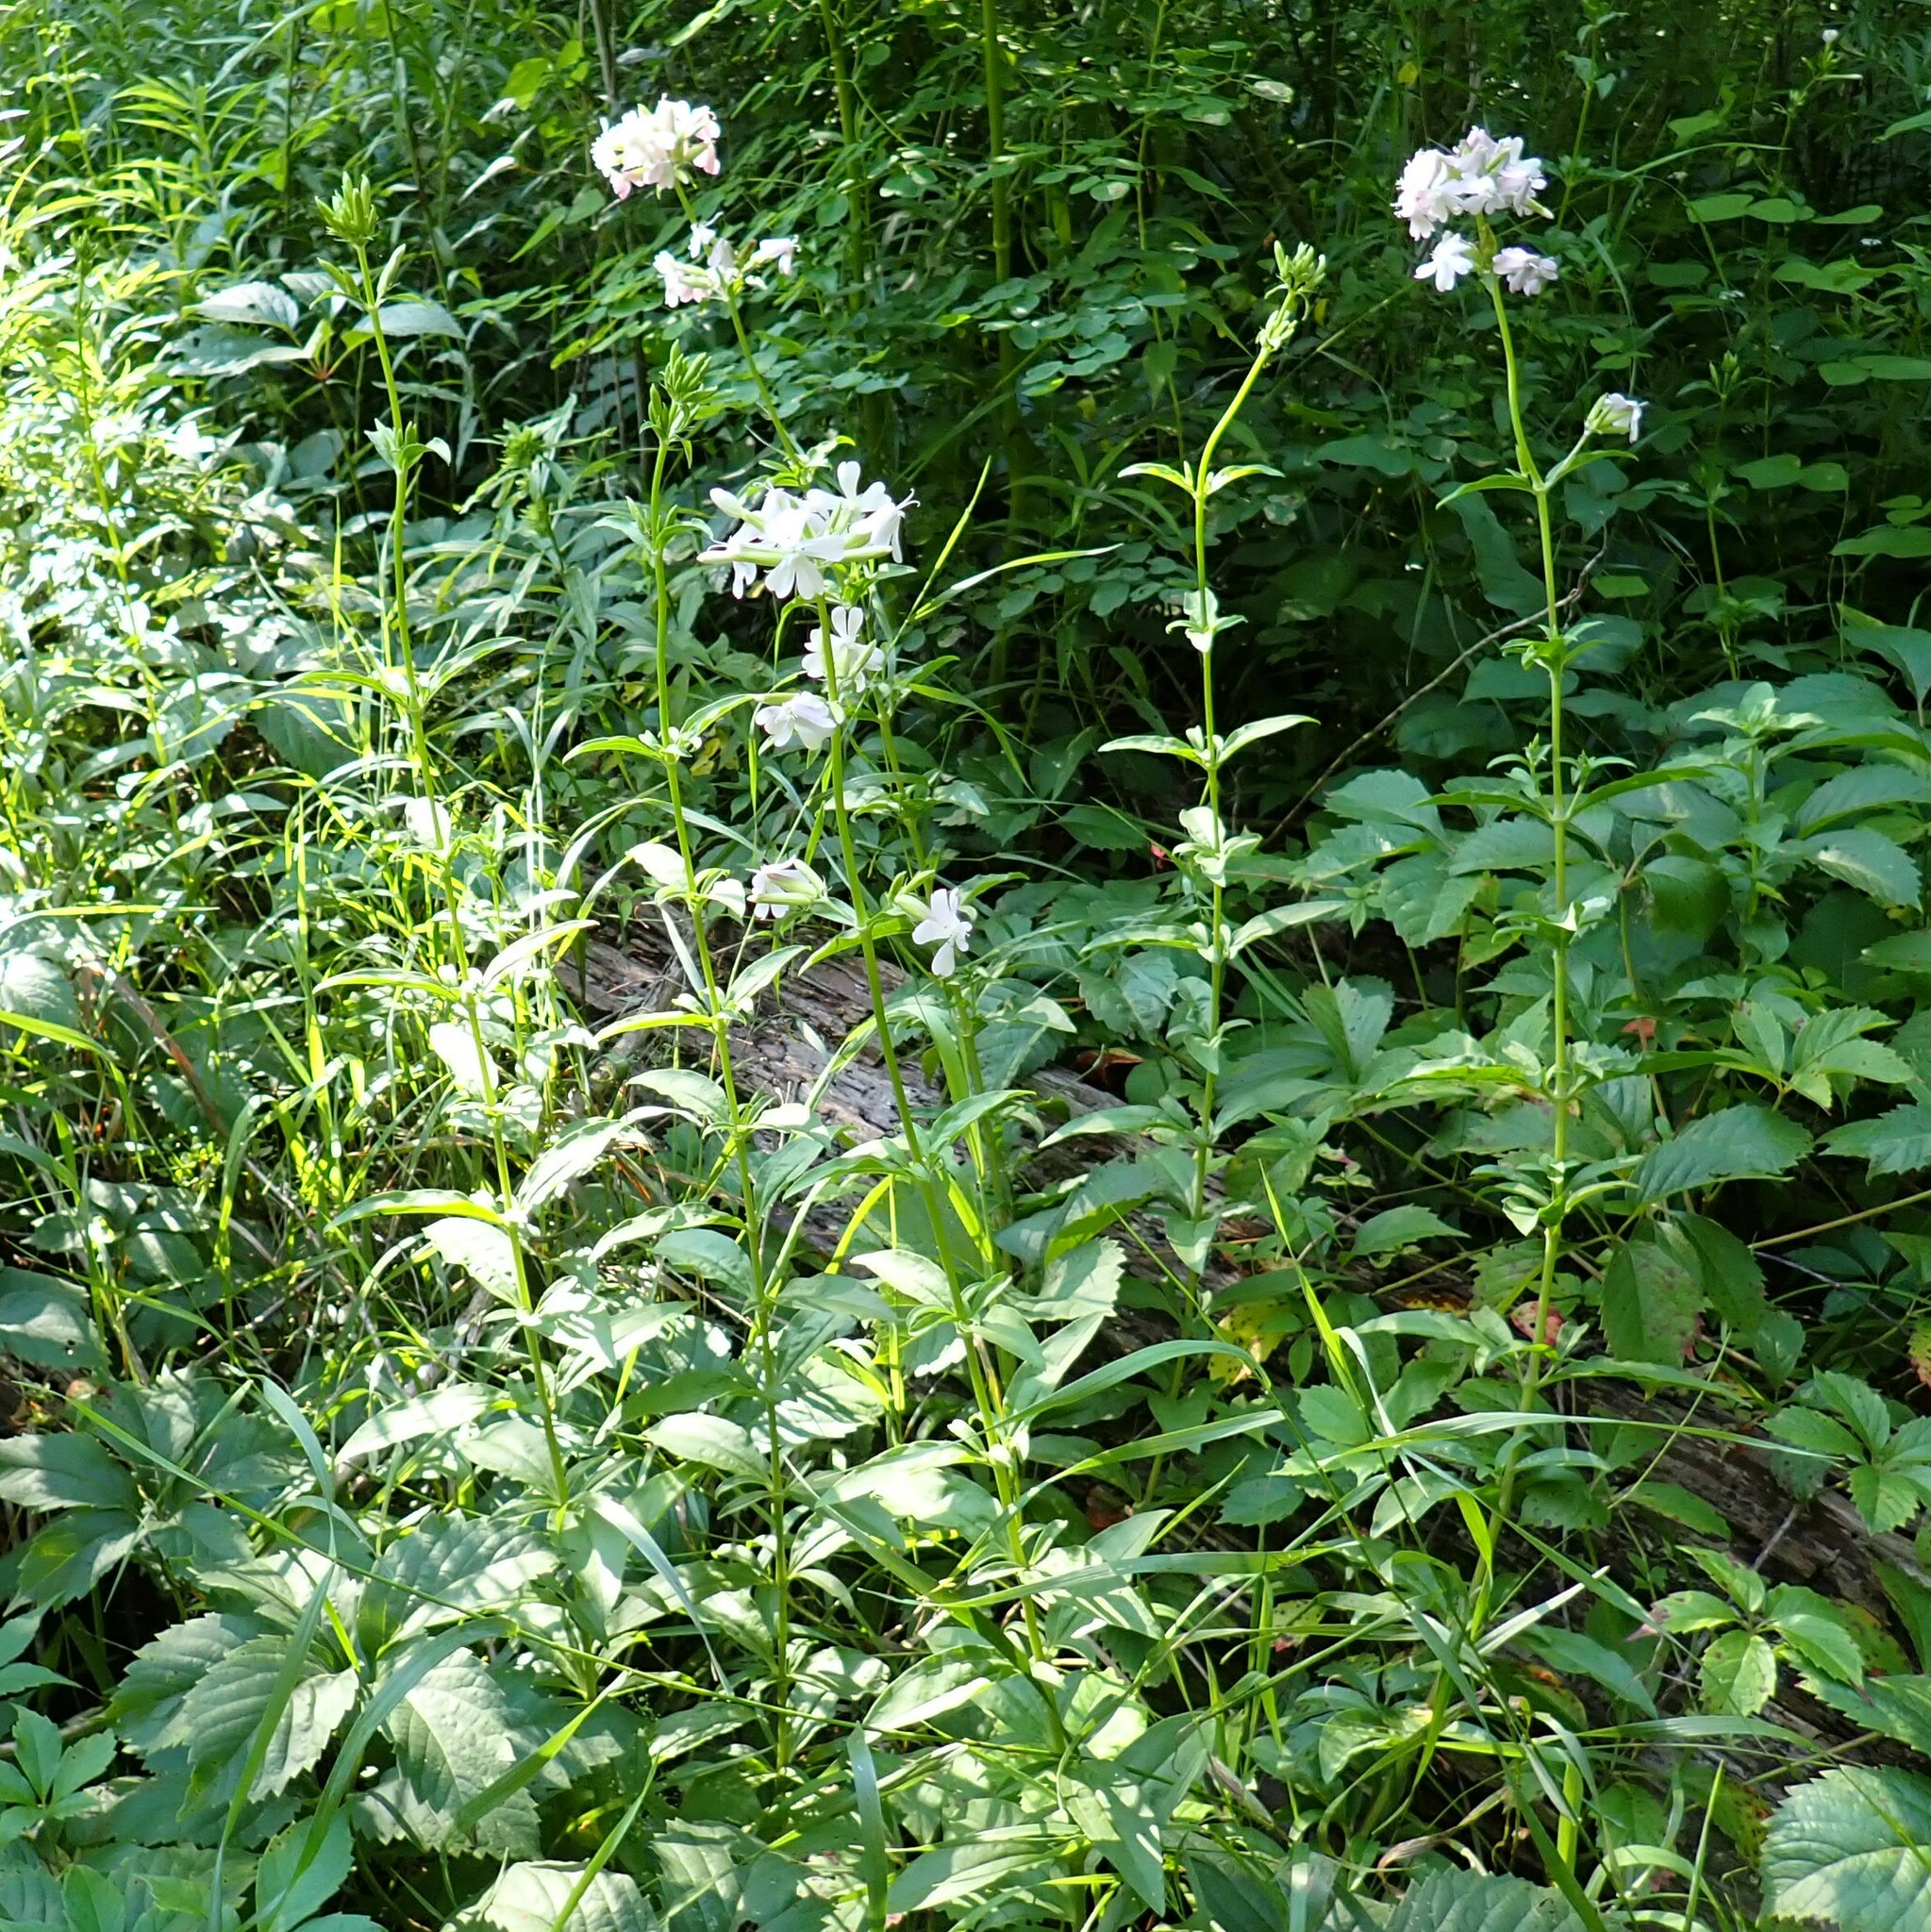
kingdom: Plantae
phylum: Tracheophyta
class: Magnoliopsida
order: Caryophyllales
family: Caryophyllaceae
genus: Saponaria
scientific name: Saponaria officinalis
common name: Soapwort
